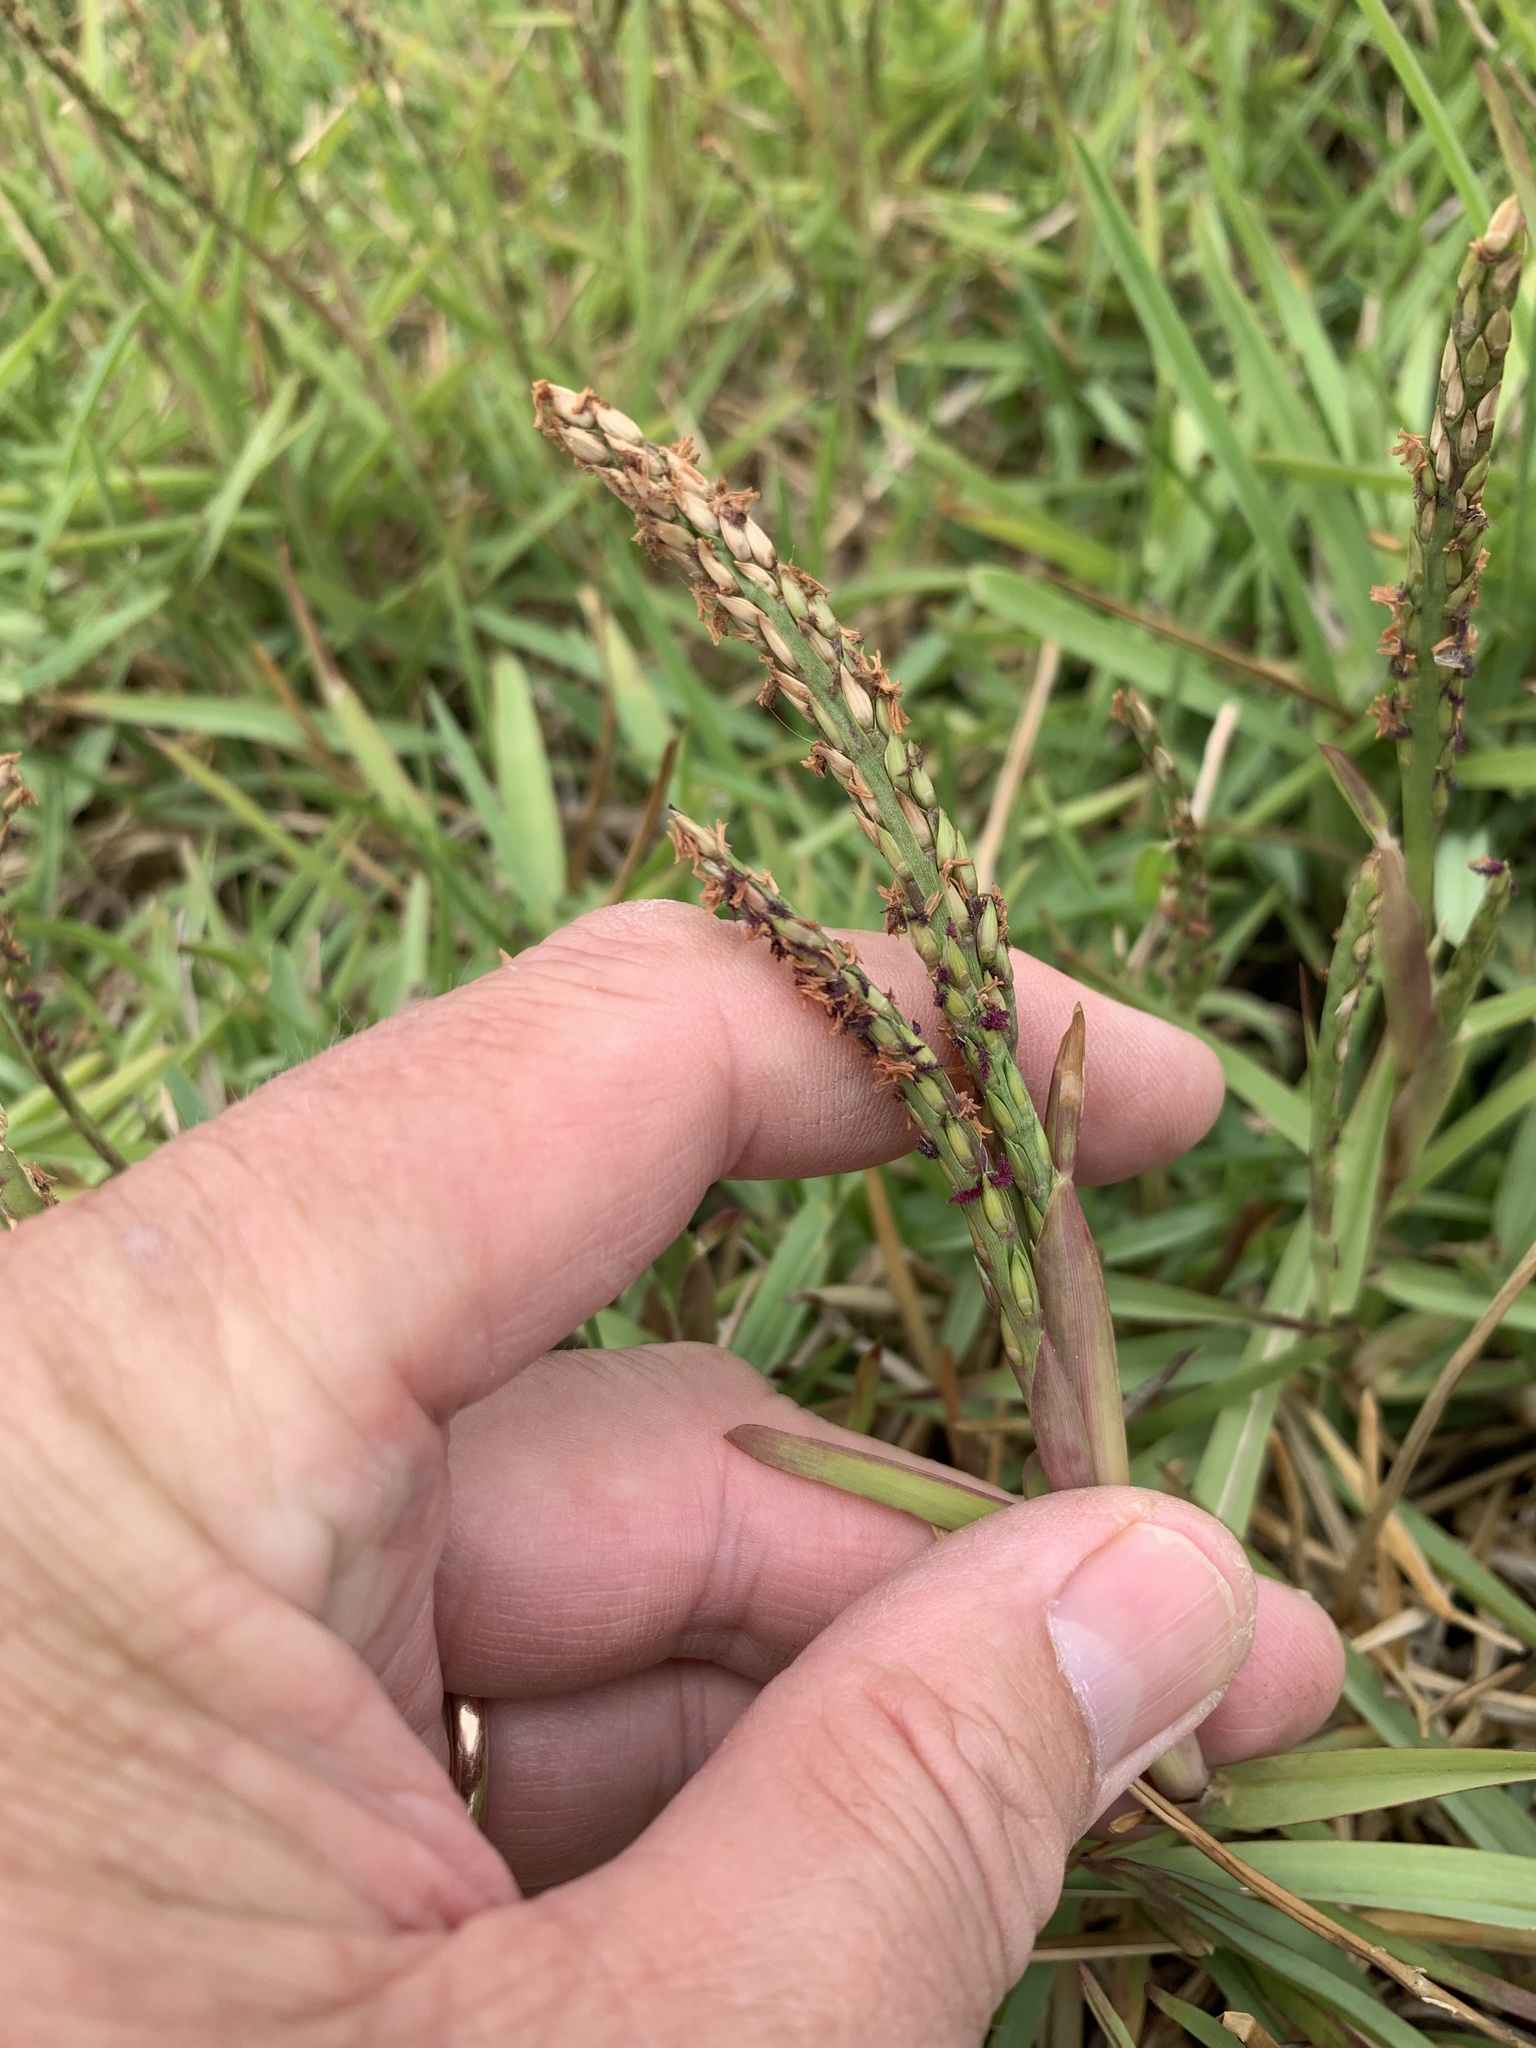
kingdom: Plantae
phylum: Tracheophyta
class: Liliopsida
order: Poales
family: Poaceae
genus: Stenotaphrum
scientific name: Stenotaphrum secundatum
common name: St. augustine grass
